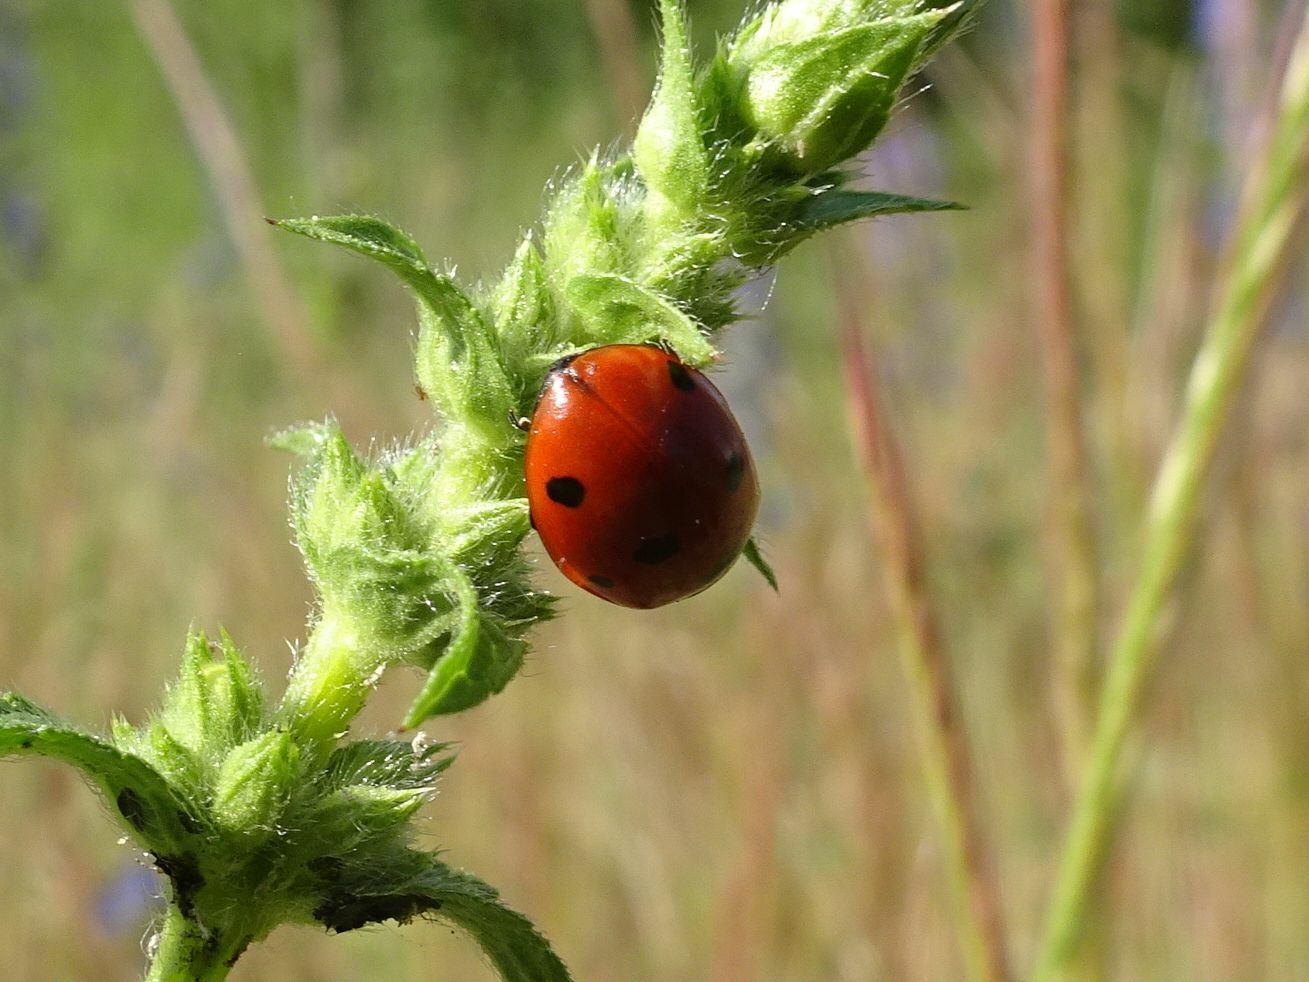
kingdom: Animalia
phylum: Arthropoda
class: Insecta
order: Coleoptera
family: Coccinellidae
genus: Coccinella
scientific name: Coccinella septempunctata
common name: Sevenspotted lady beetle
